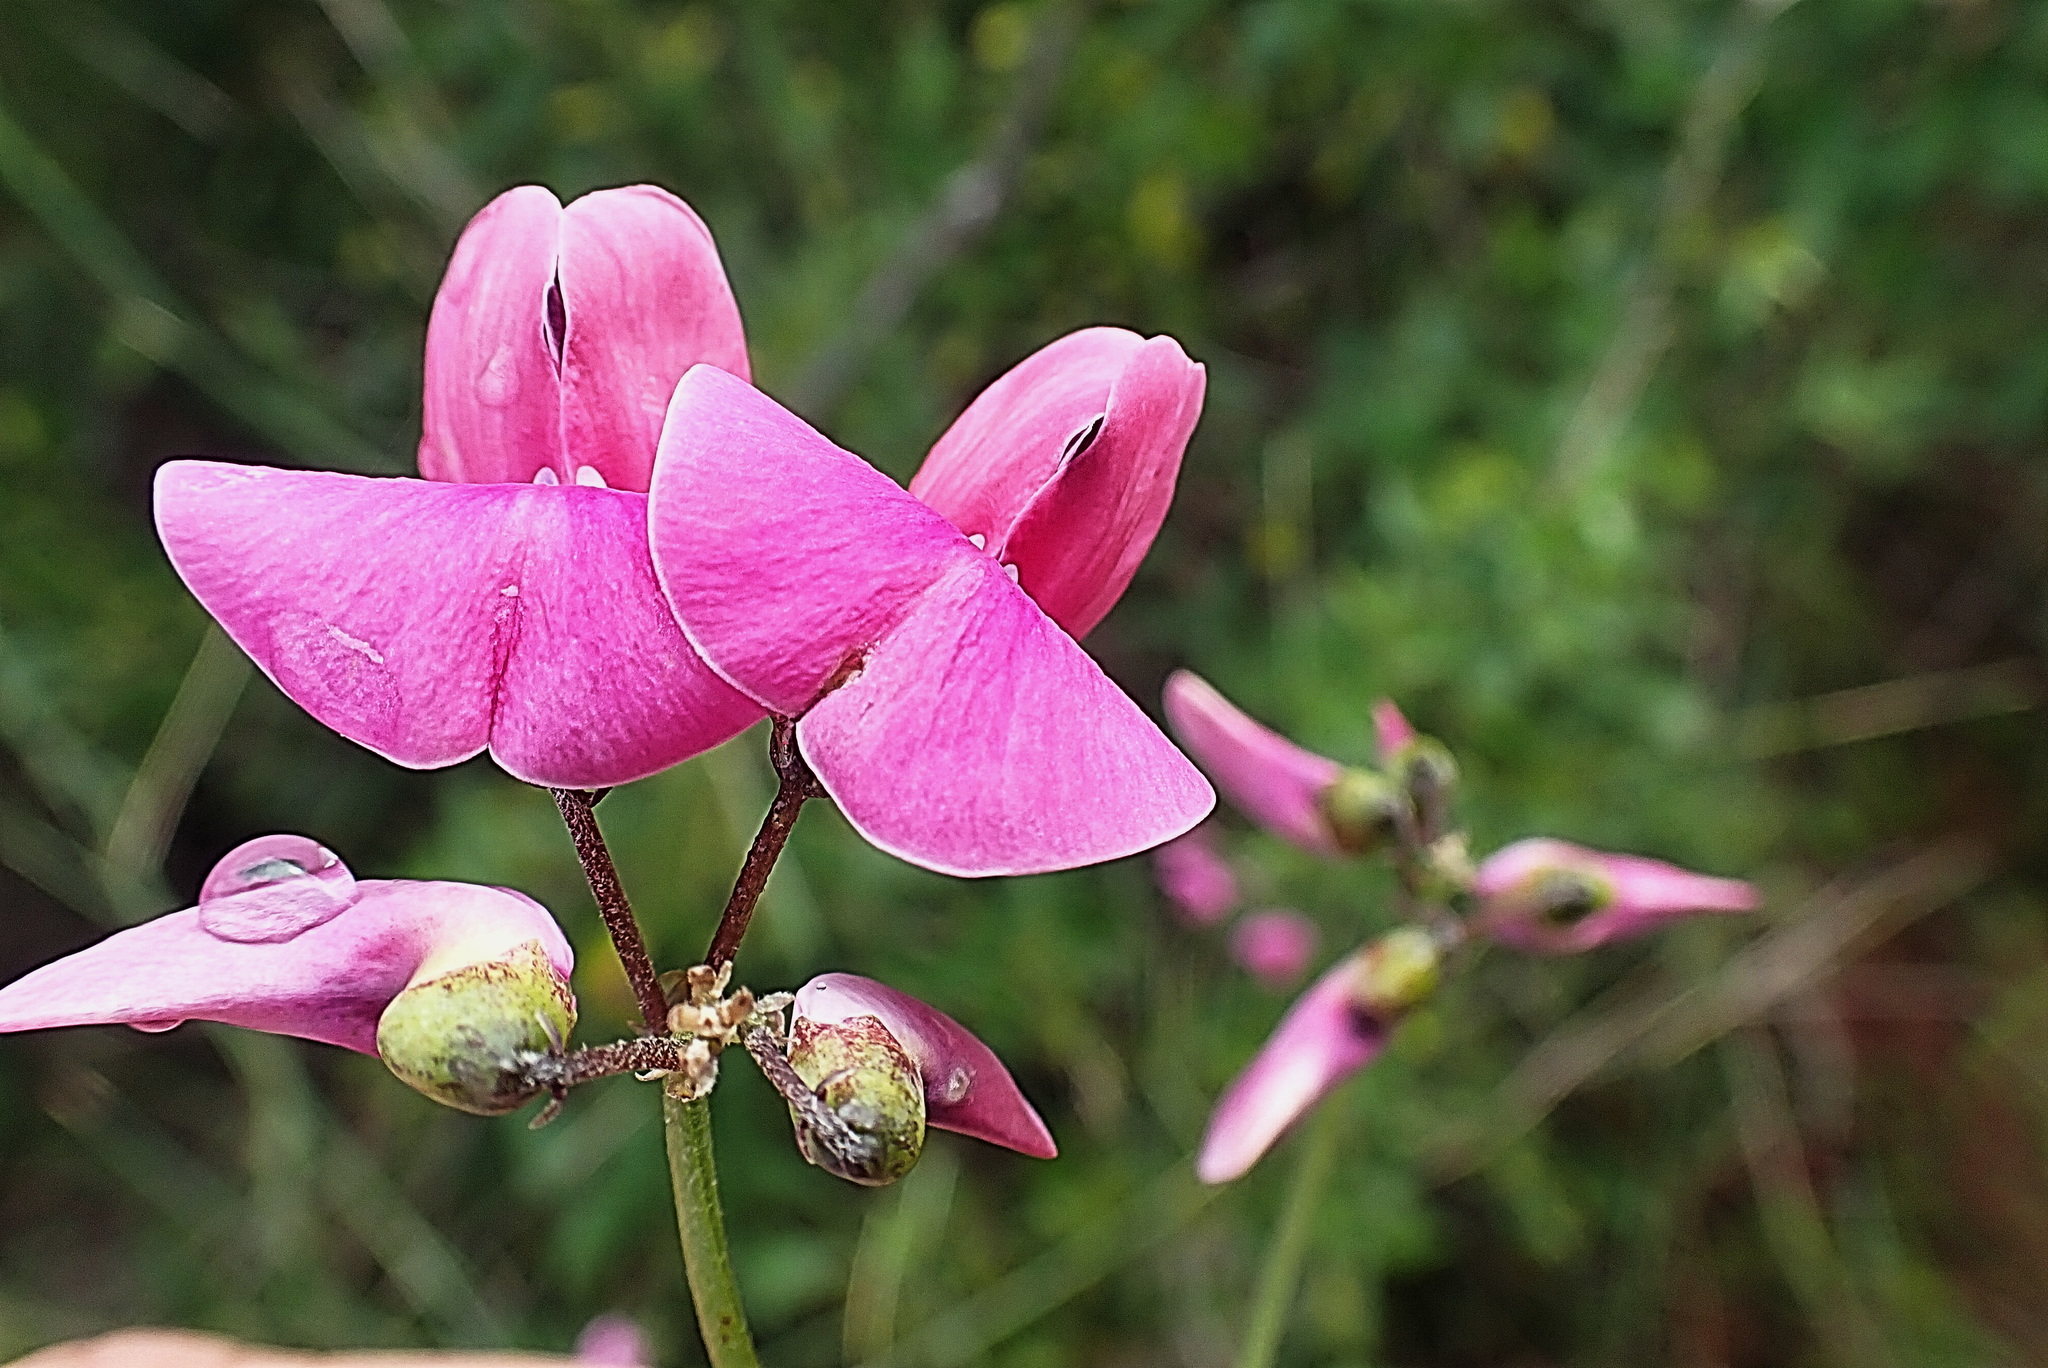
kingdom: Plantae
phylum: Tracheophyta
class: Magnoliopsida
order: Fabales
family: Fabaceae
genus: Dipogon
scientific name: Dipogon lignosus
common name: Okie bean
